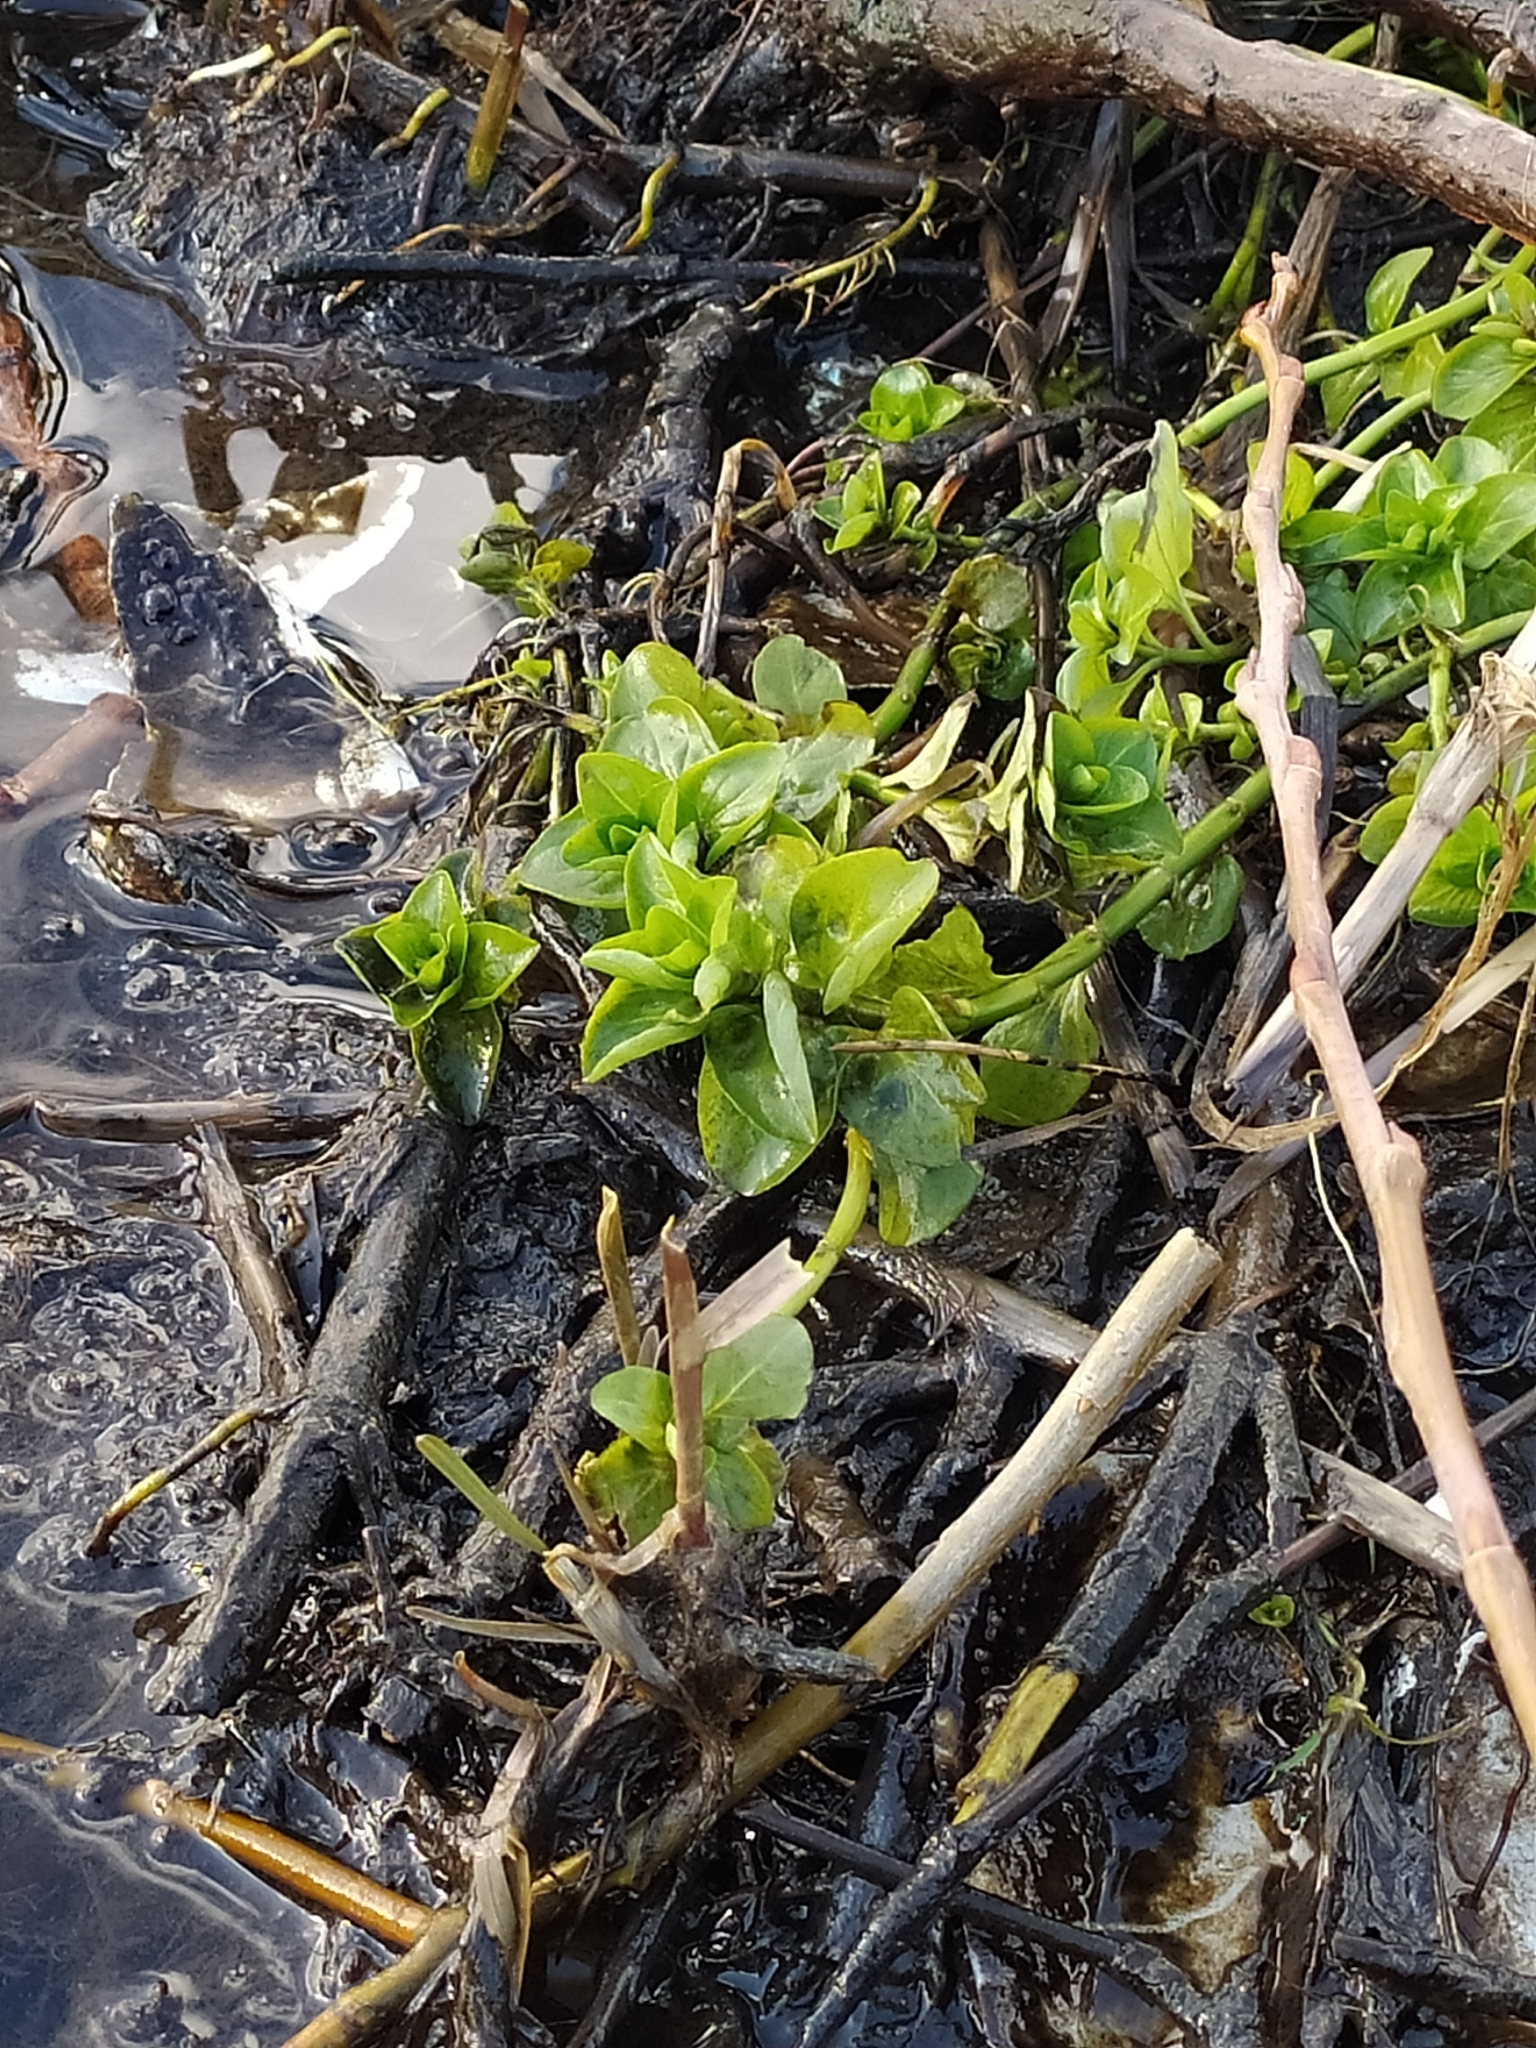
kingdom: Plantae
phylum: Tracheophyta
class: Magnoliopsida
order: Lamiales
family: Plantaginaceae
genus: Veronica
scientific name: Veronica beccabunga
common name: Brooklime
